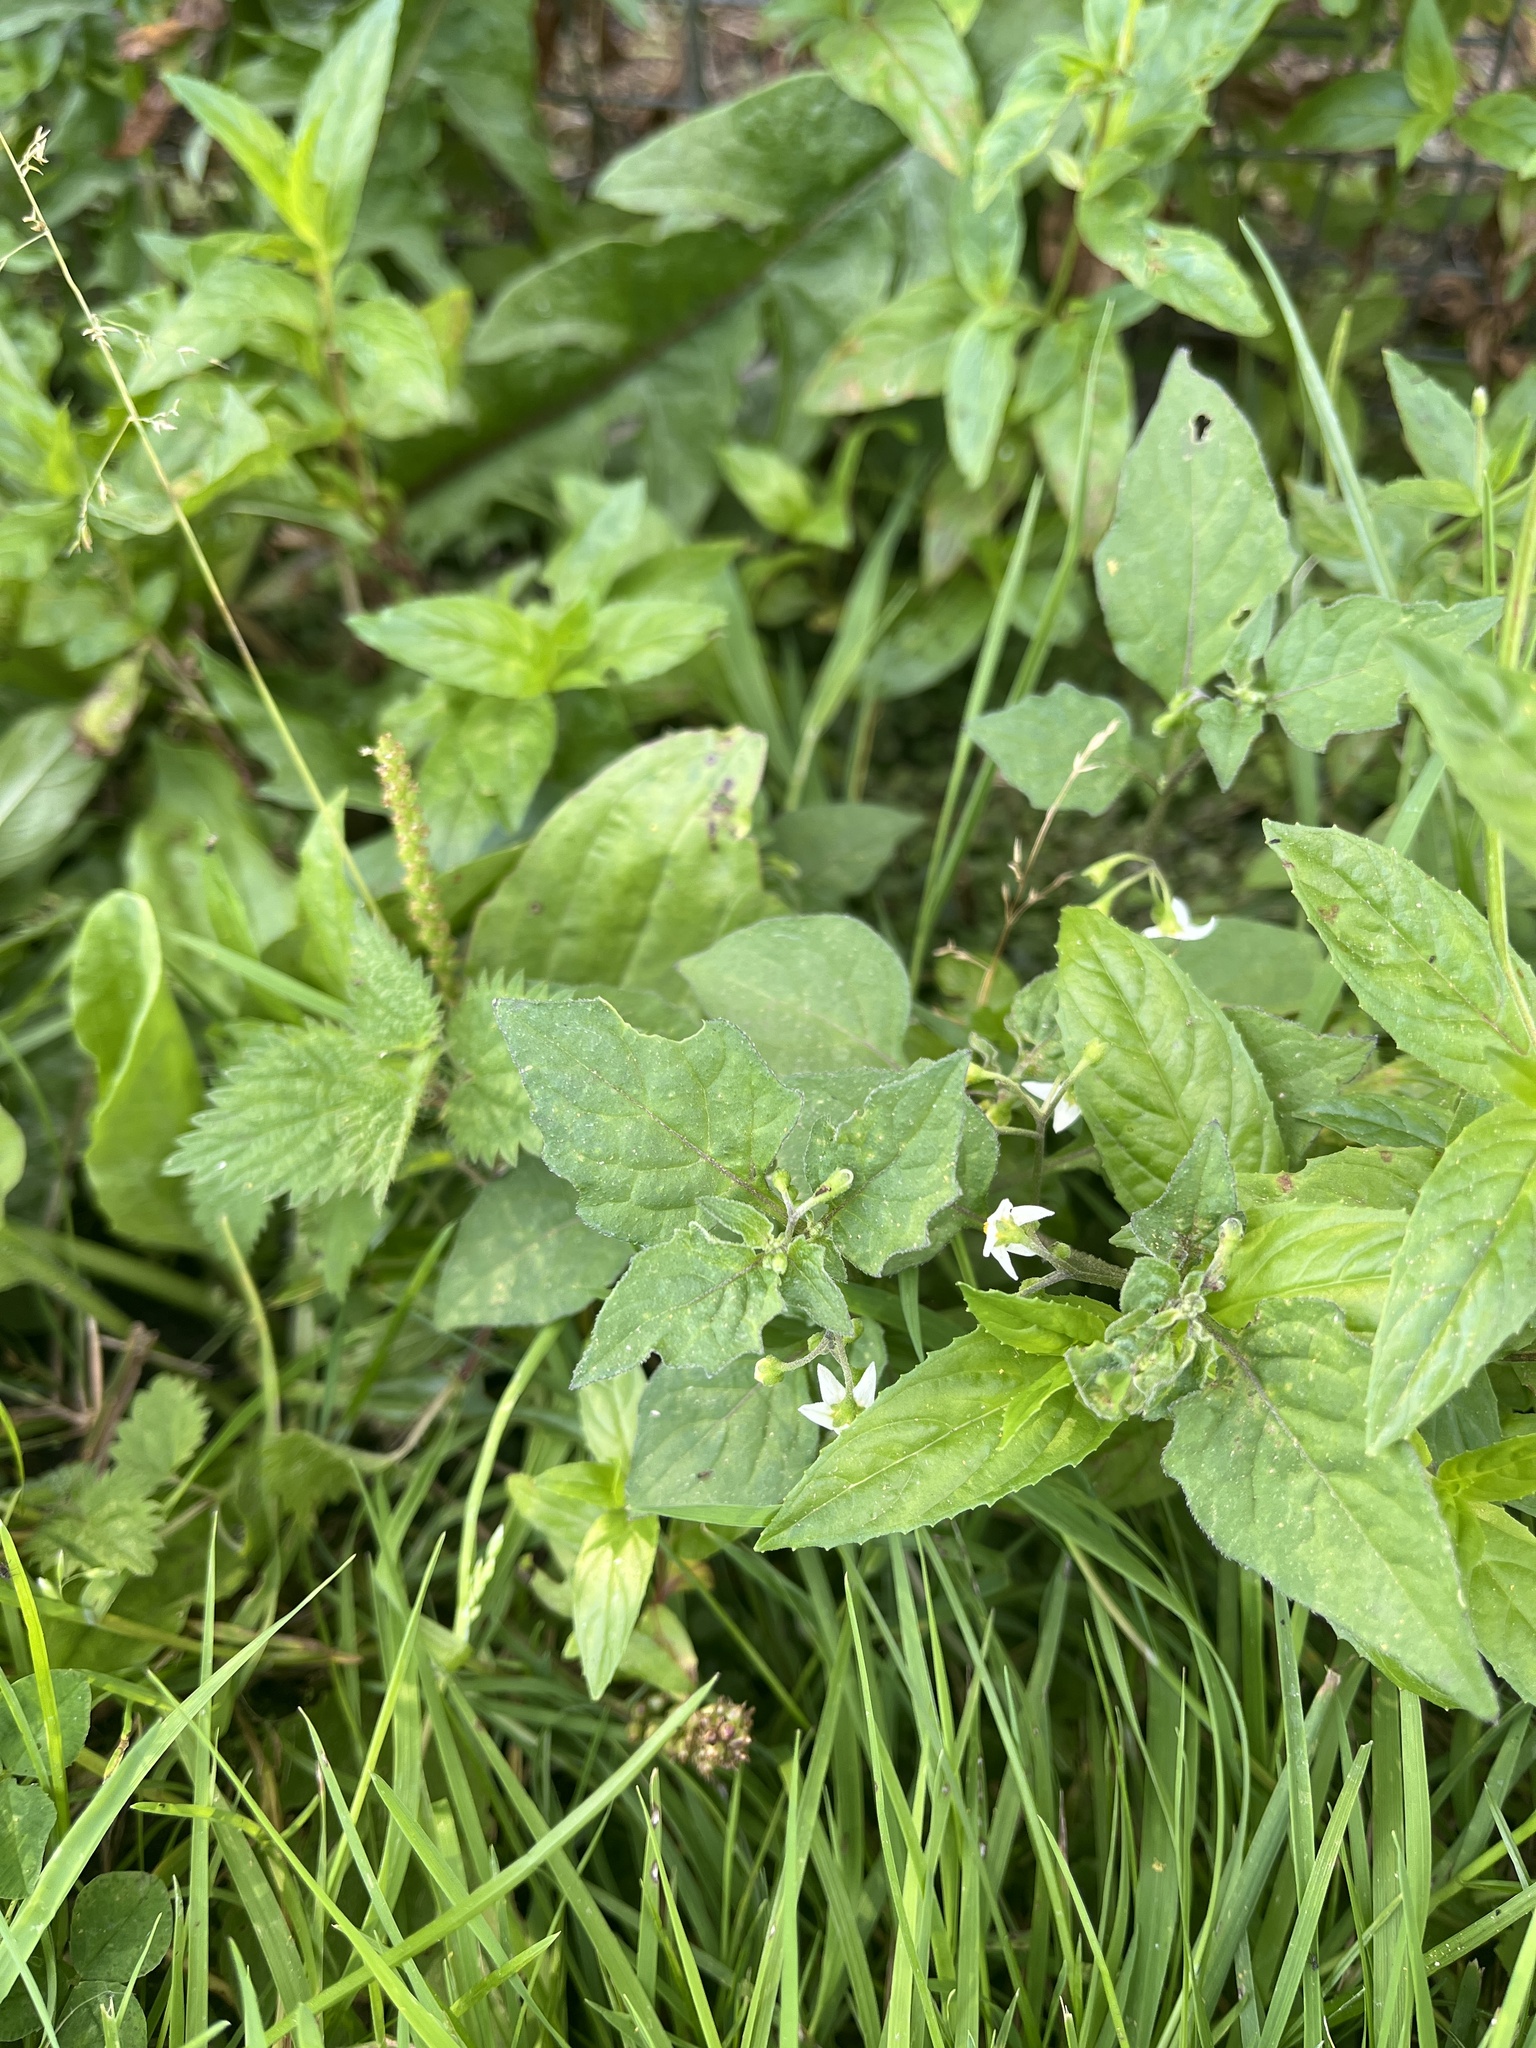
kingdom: Plantae
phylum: Tracheophyta
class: Magnoliopsida
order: Solanales
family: Solanaceae
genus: Solanum
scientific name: Solanum nigrum
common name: Black nightshade
